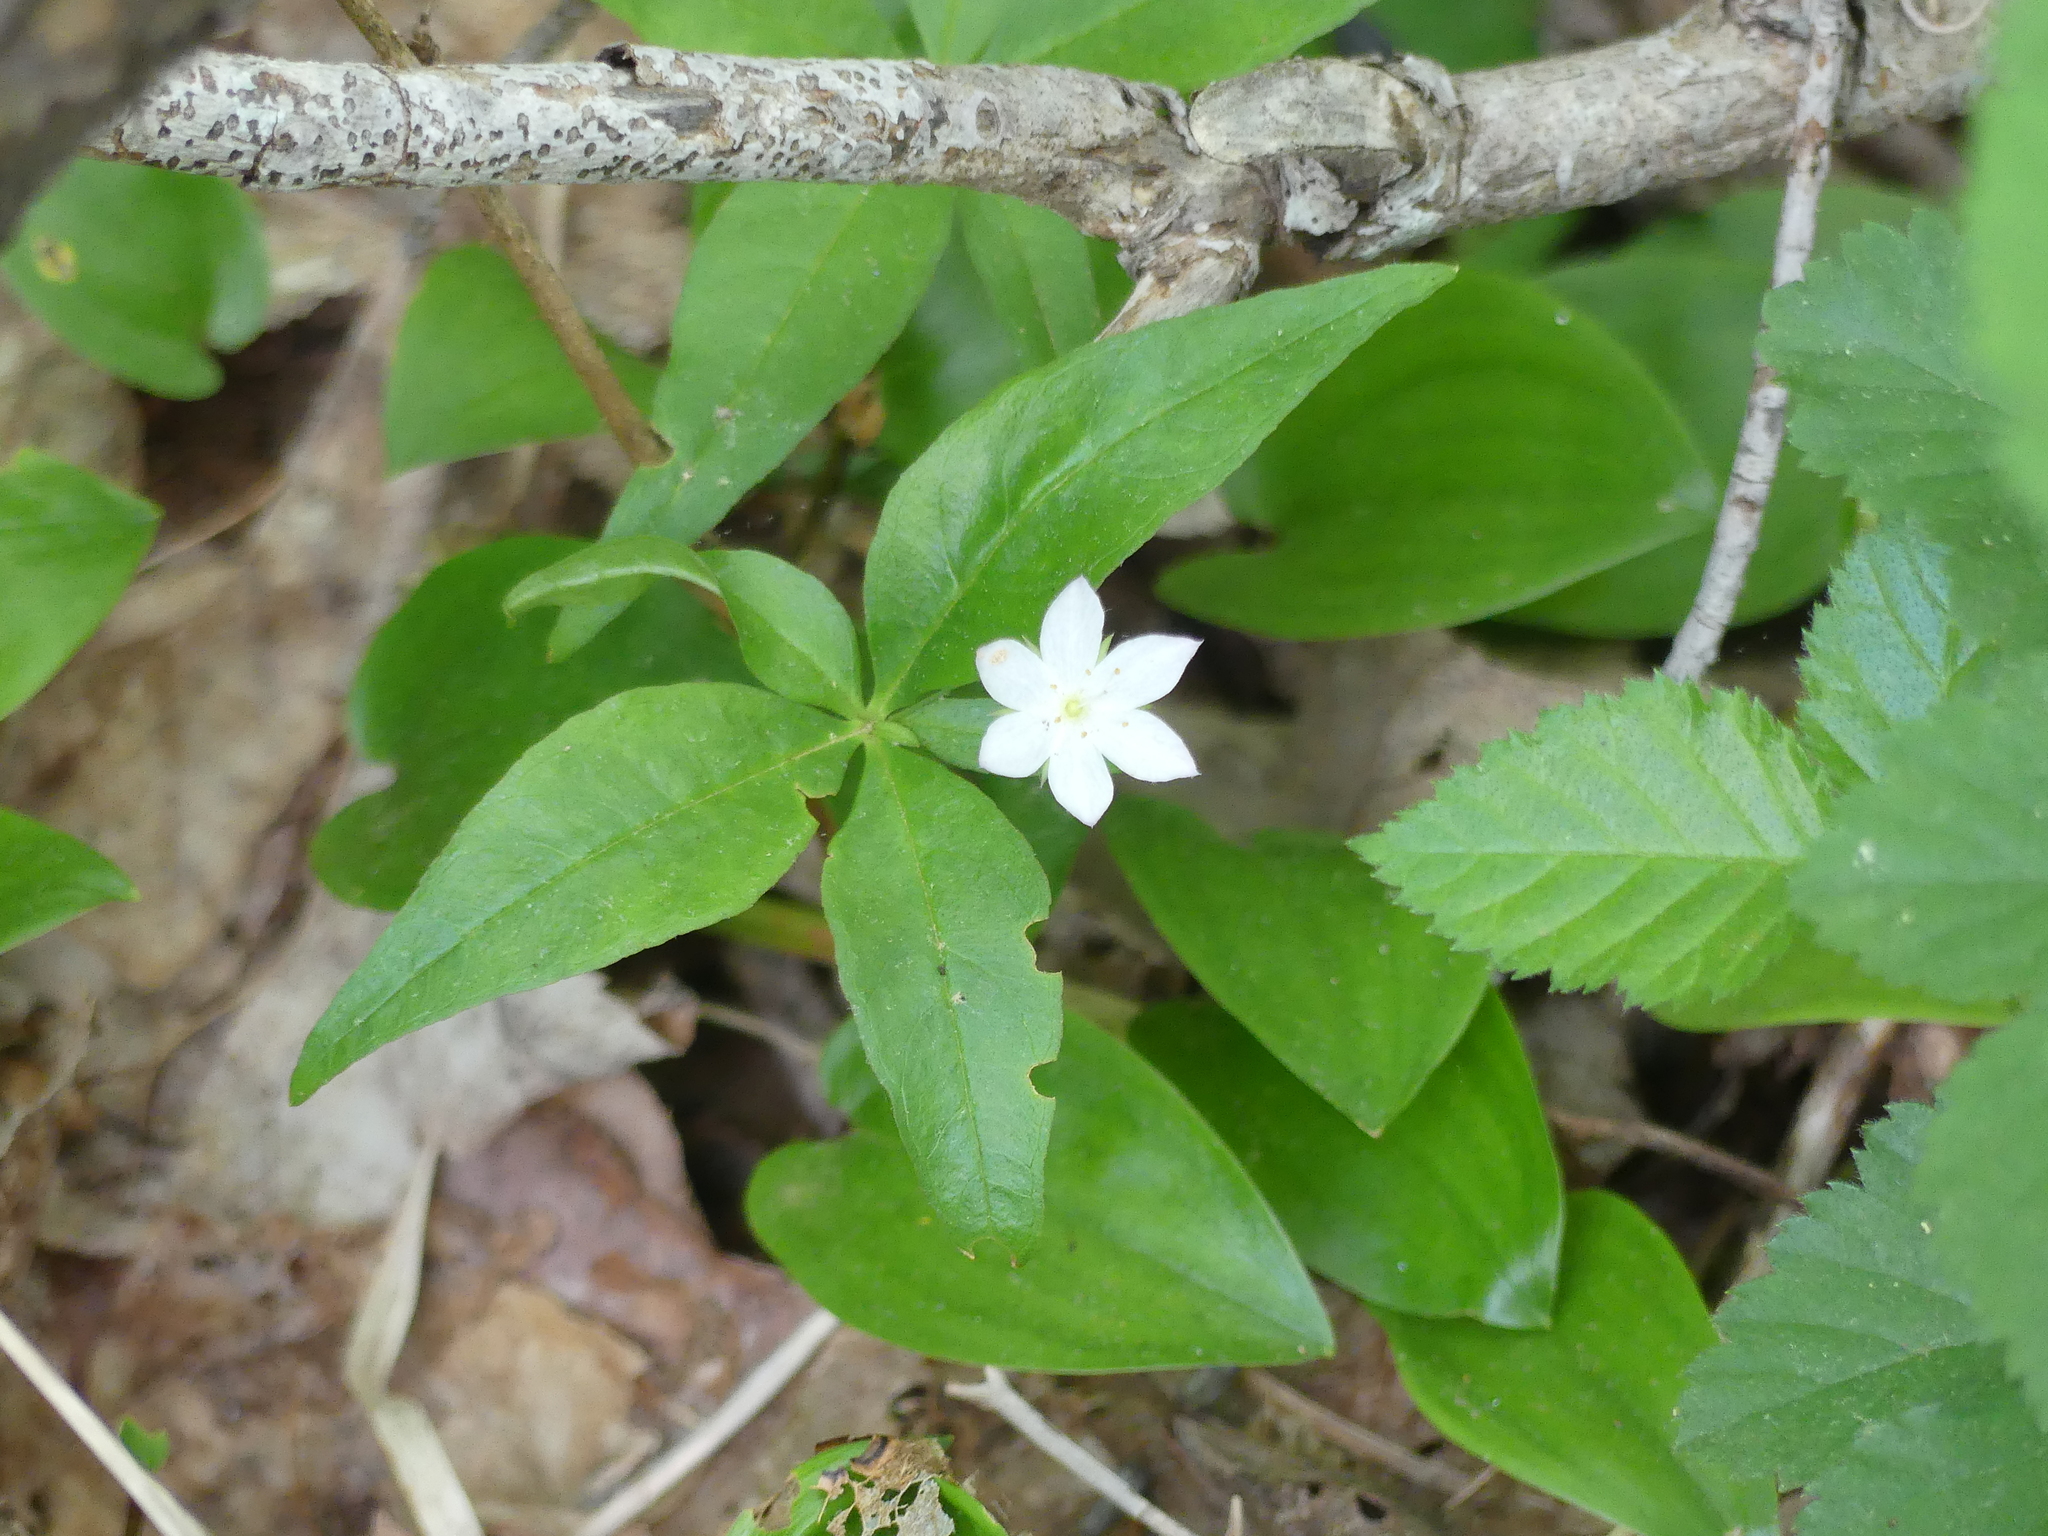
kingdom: Plantae
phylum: Tracheophyta
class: Magnoliopsida
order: Ericales
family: Primulaceae
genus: Lysimachia
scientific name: Lysimachia borealis
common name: American starflower
